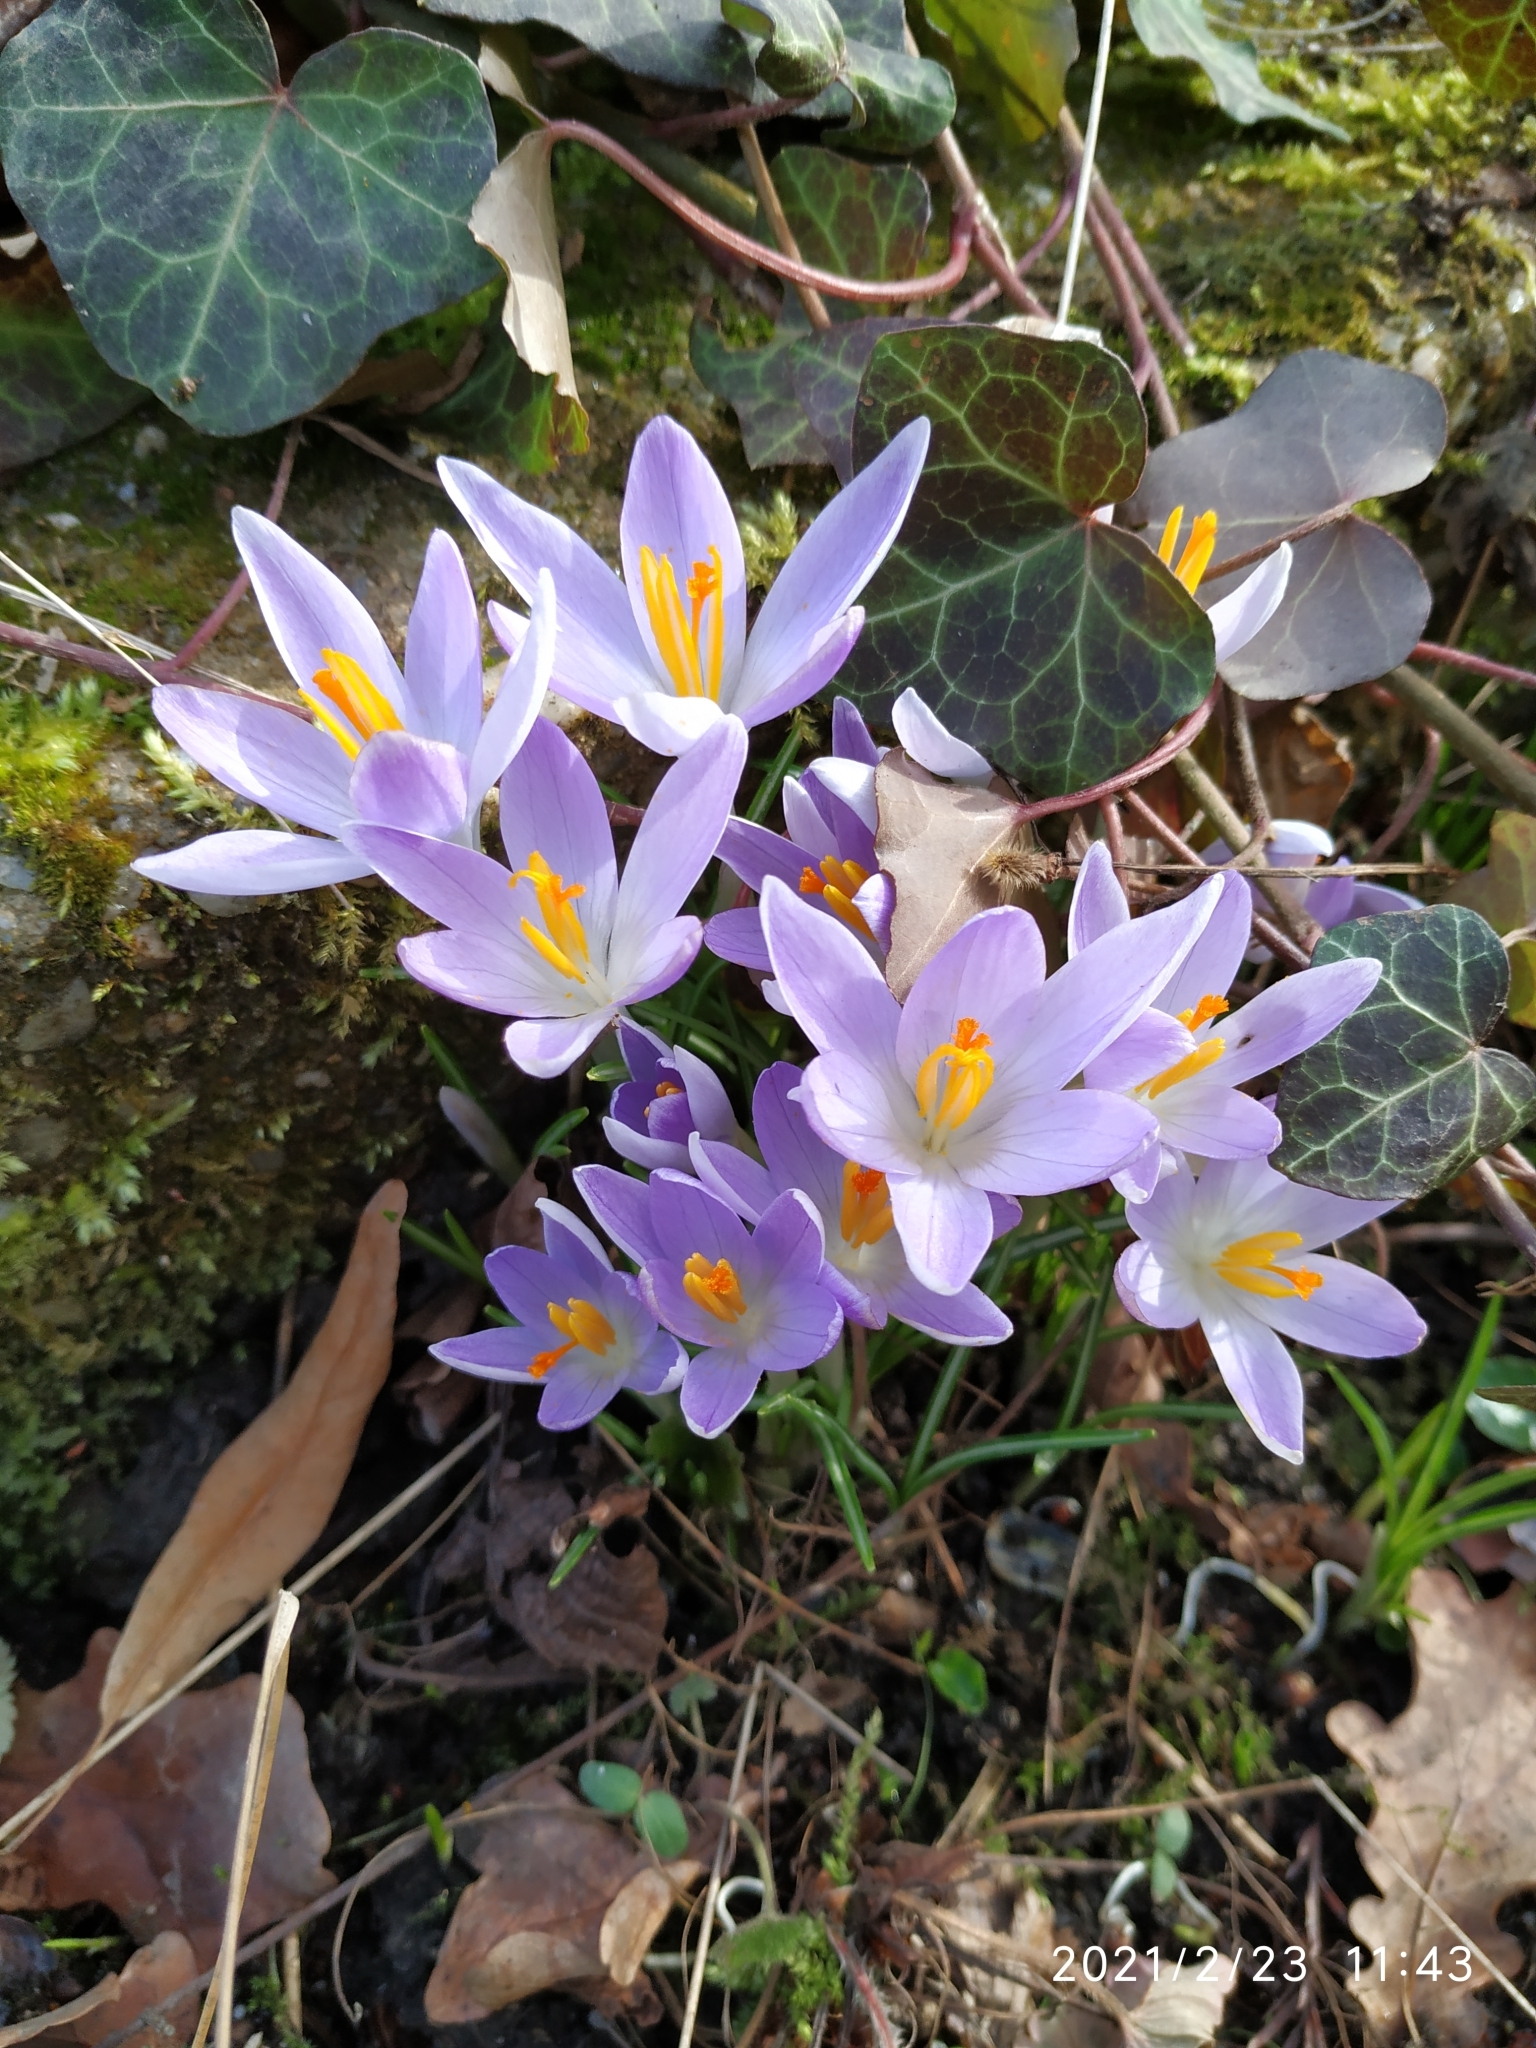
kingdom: Plantae
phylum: Tracheophyta
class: Liliopsida
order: Asparagales
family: Iridaceae
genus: Crocus
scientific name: Crocus tommasinianus
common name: Early crocus
